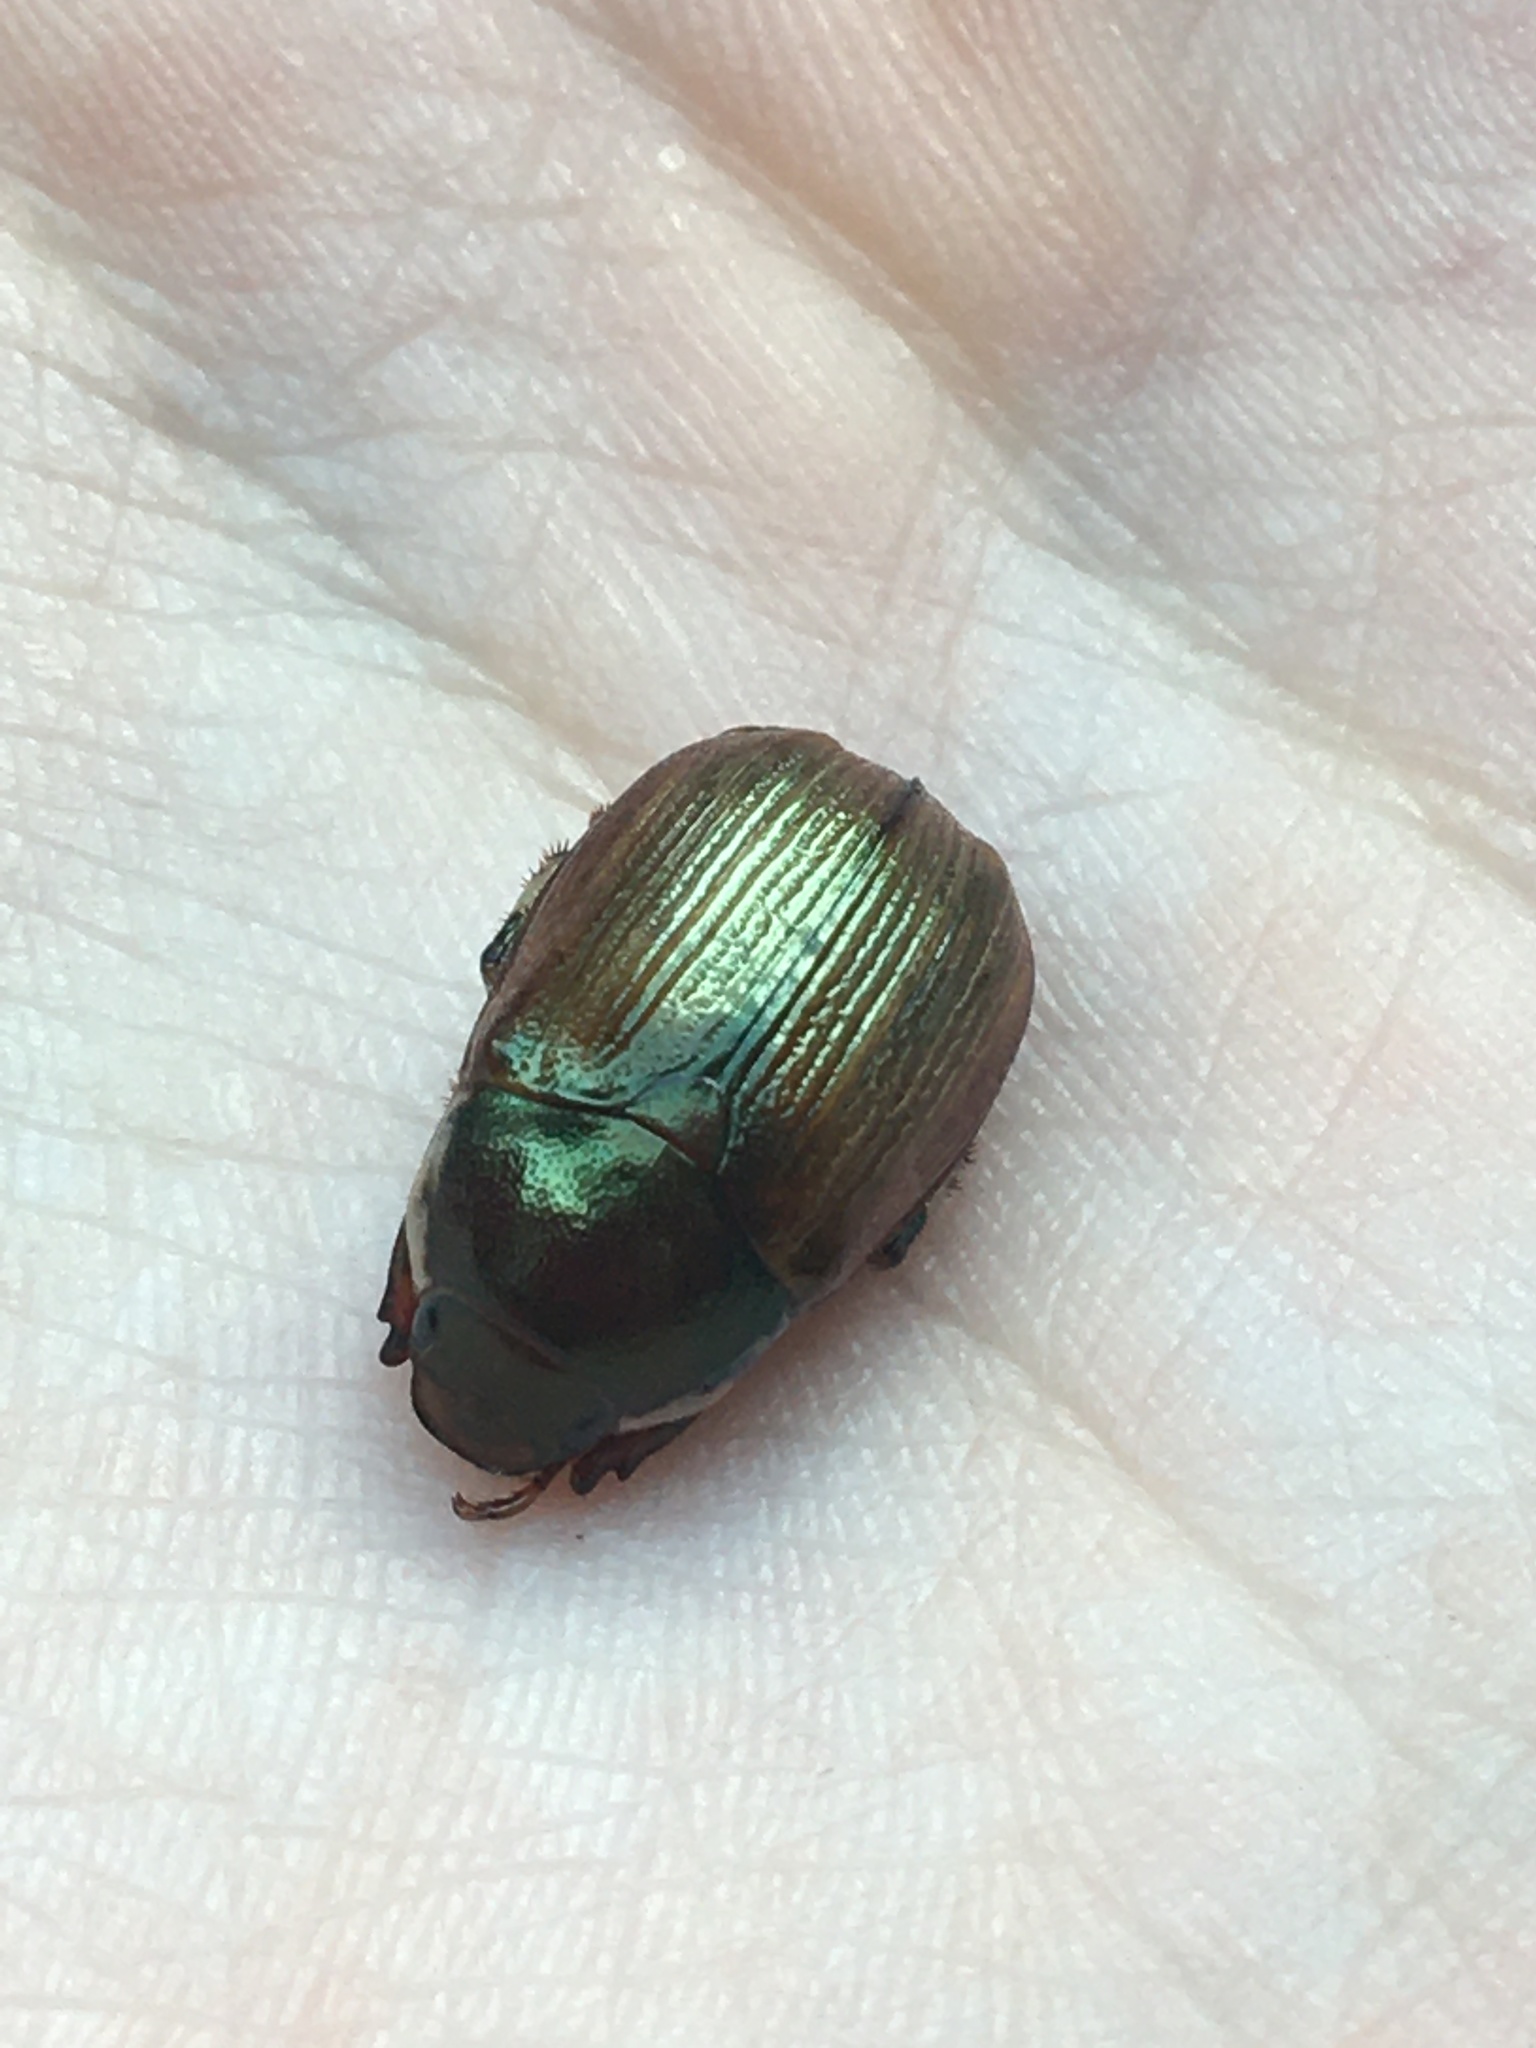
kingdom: Animalia
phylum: Arthropoda
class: Insecta
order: Coleoptera
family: Scarabaeidae
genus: Callistethus
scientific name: Callistethus marginatus
